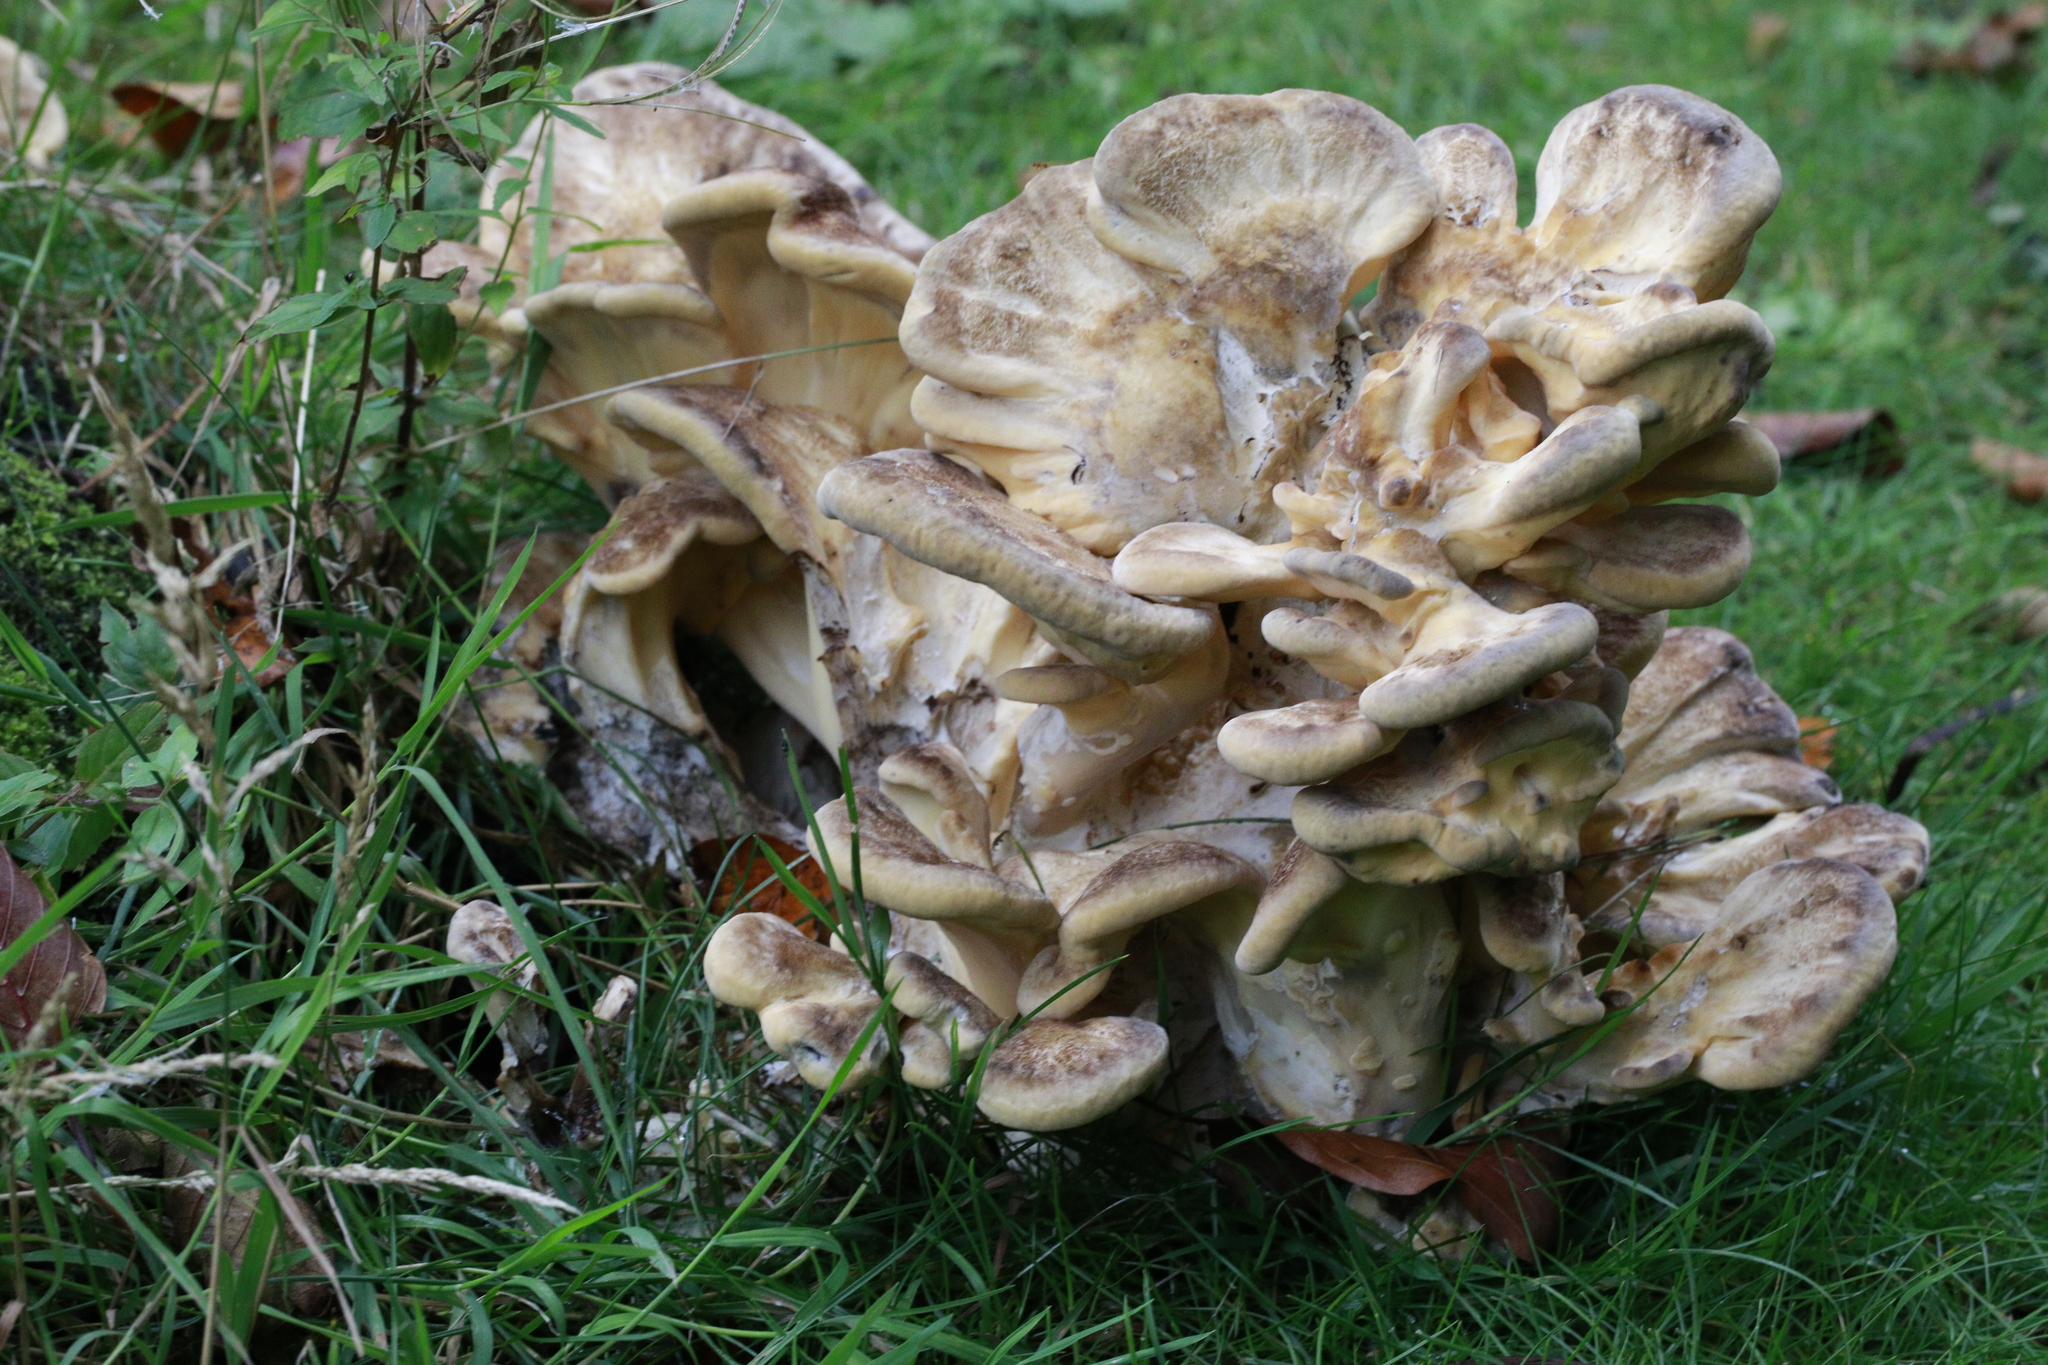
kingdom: Fungi
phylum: Basidiomycota
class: Agaricomycetes
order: Polyporales
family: Meripilaceae
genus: Meripilus
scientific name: Meripilus giganteus
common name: Giant polypore
